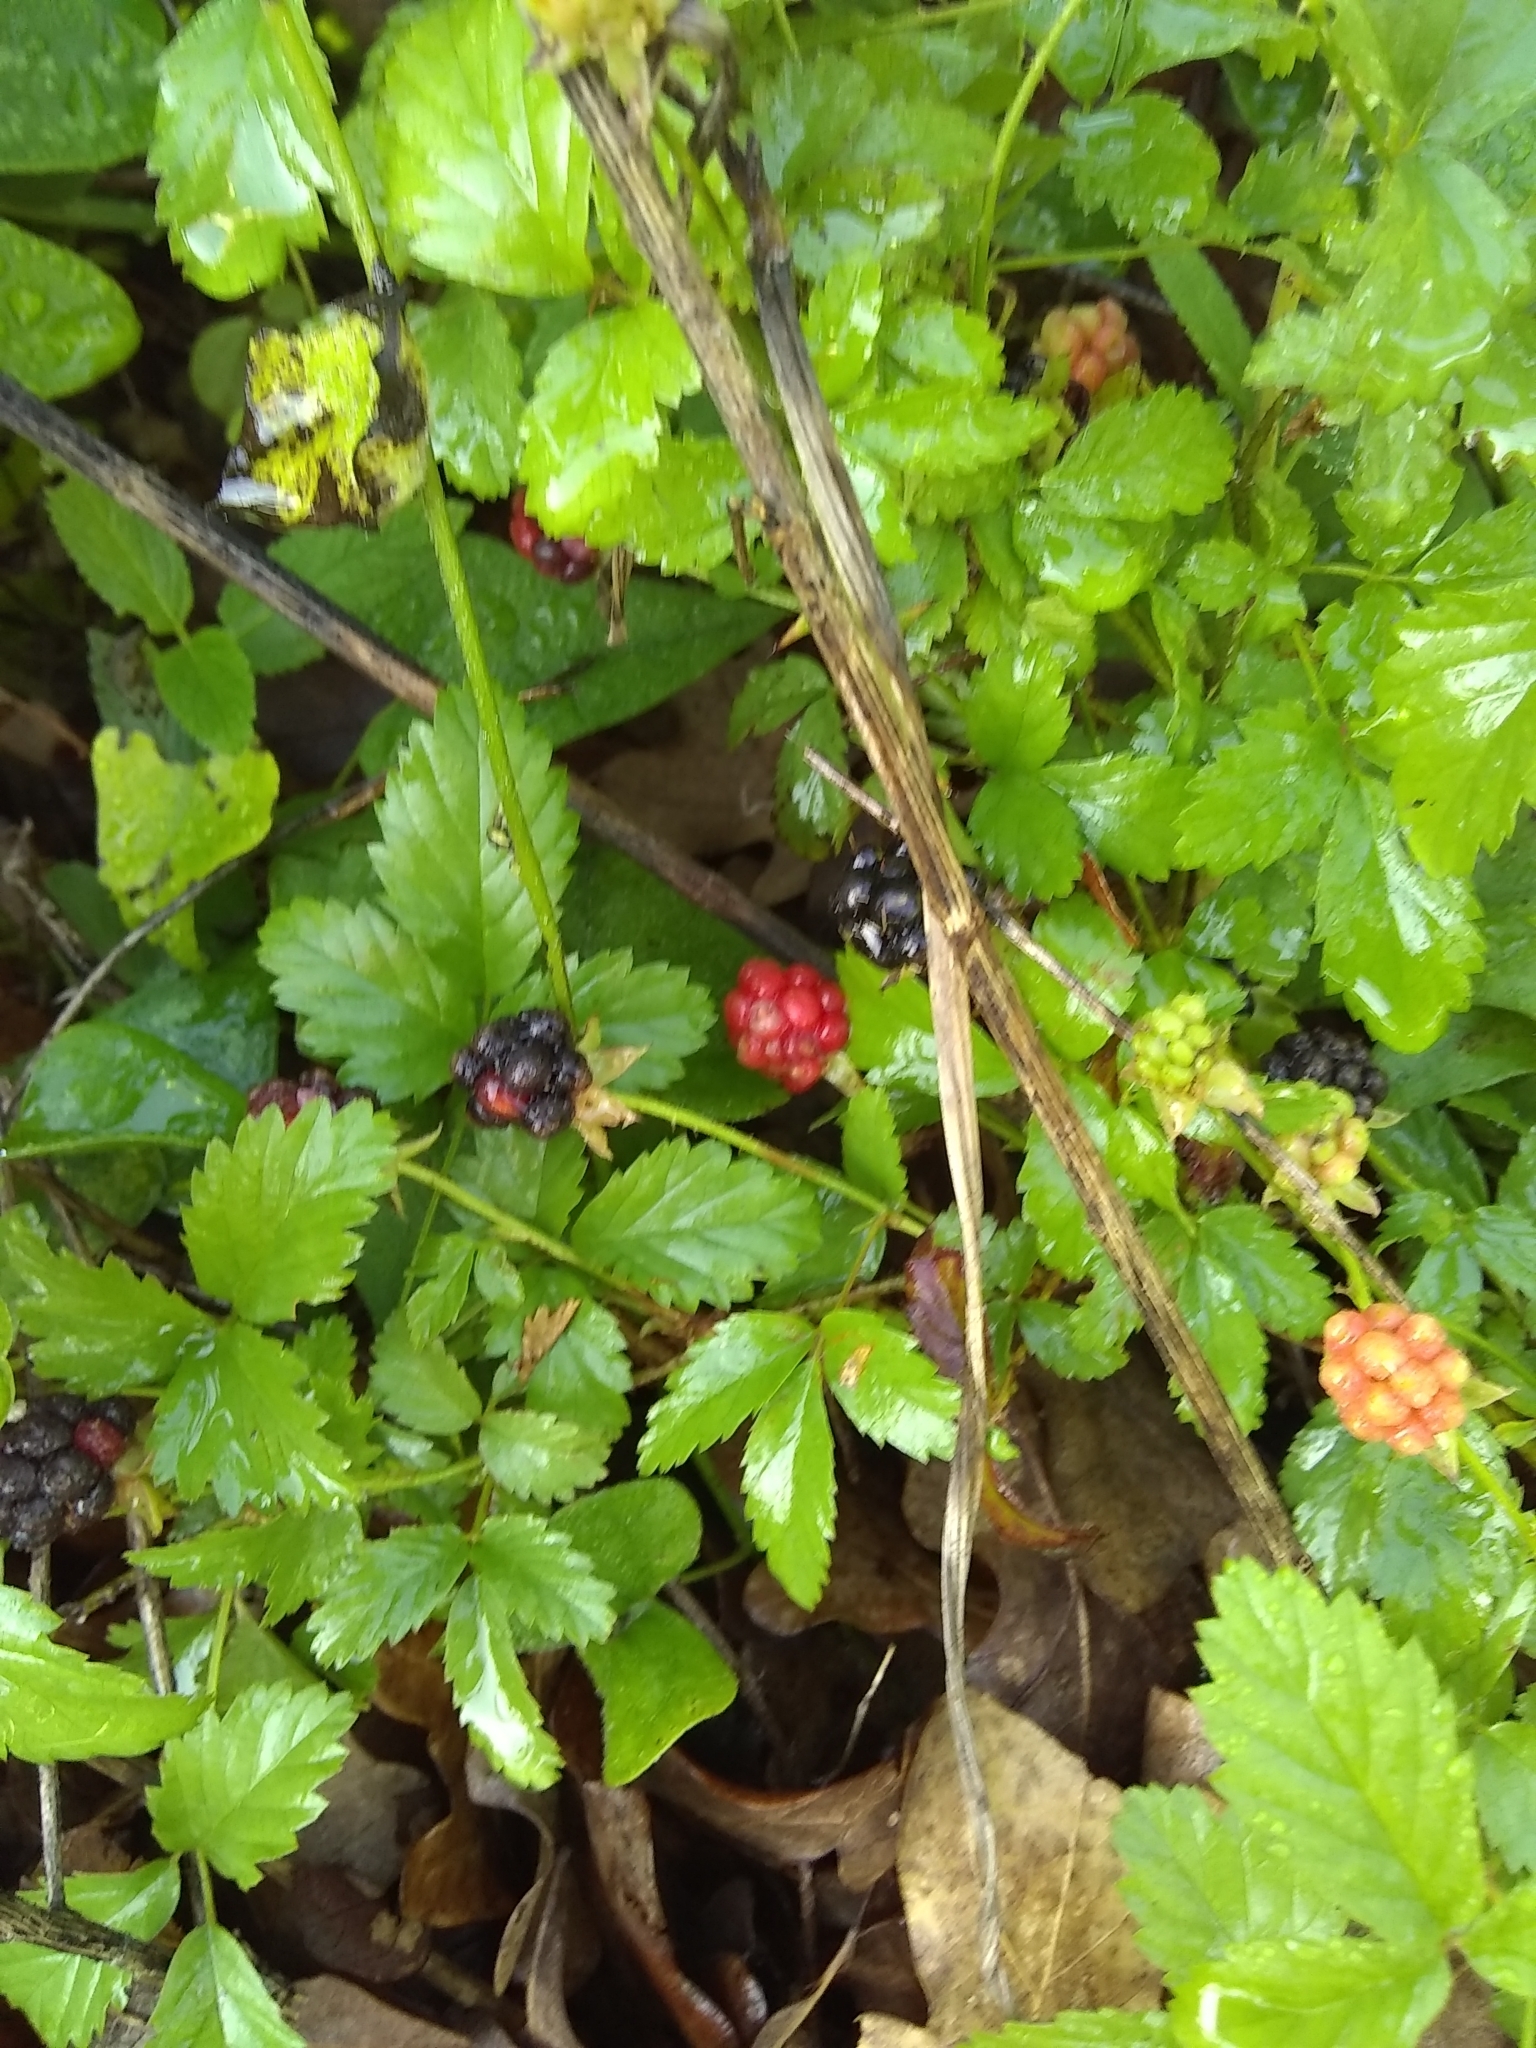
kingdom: Plantae
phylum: Tracheophyta
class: Magnoliopsida
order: Rosales
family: Rosaceae
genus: Rubus
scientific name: Rubus trivialis
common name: Southern dewberry
